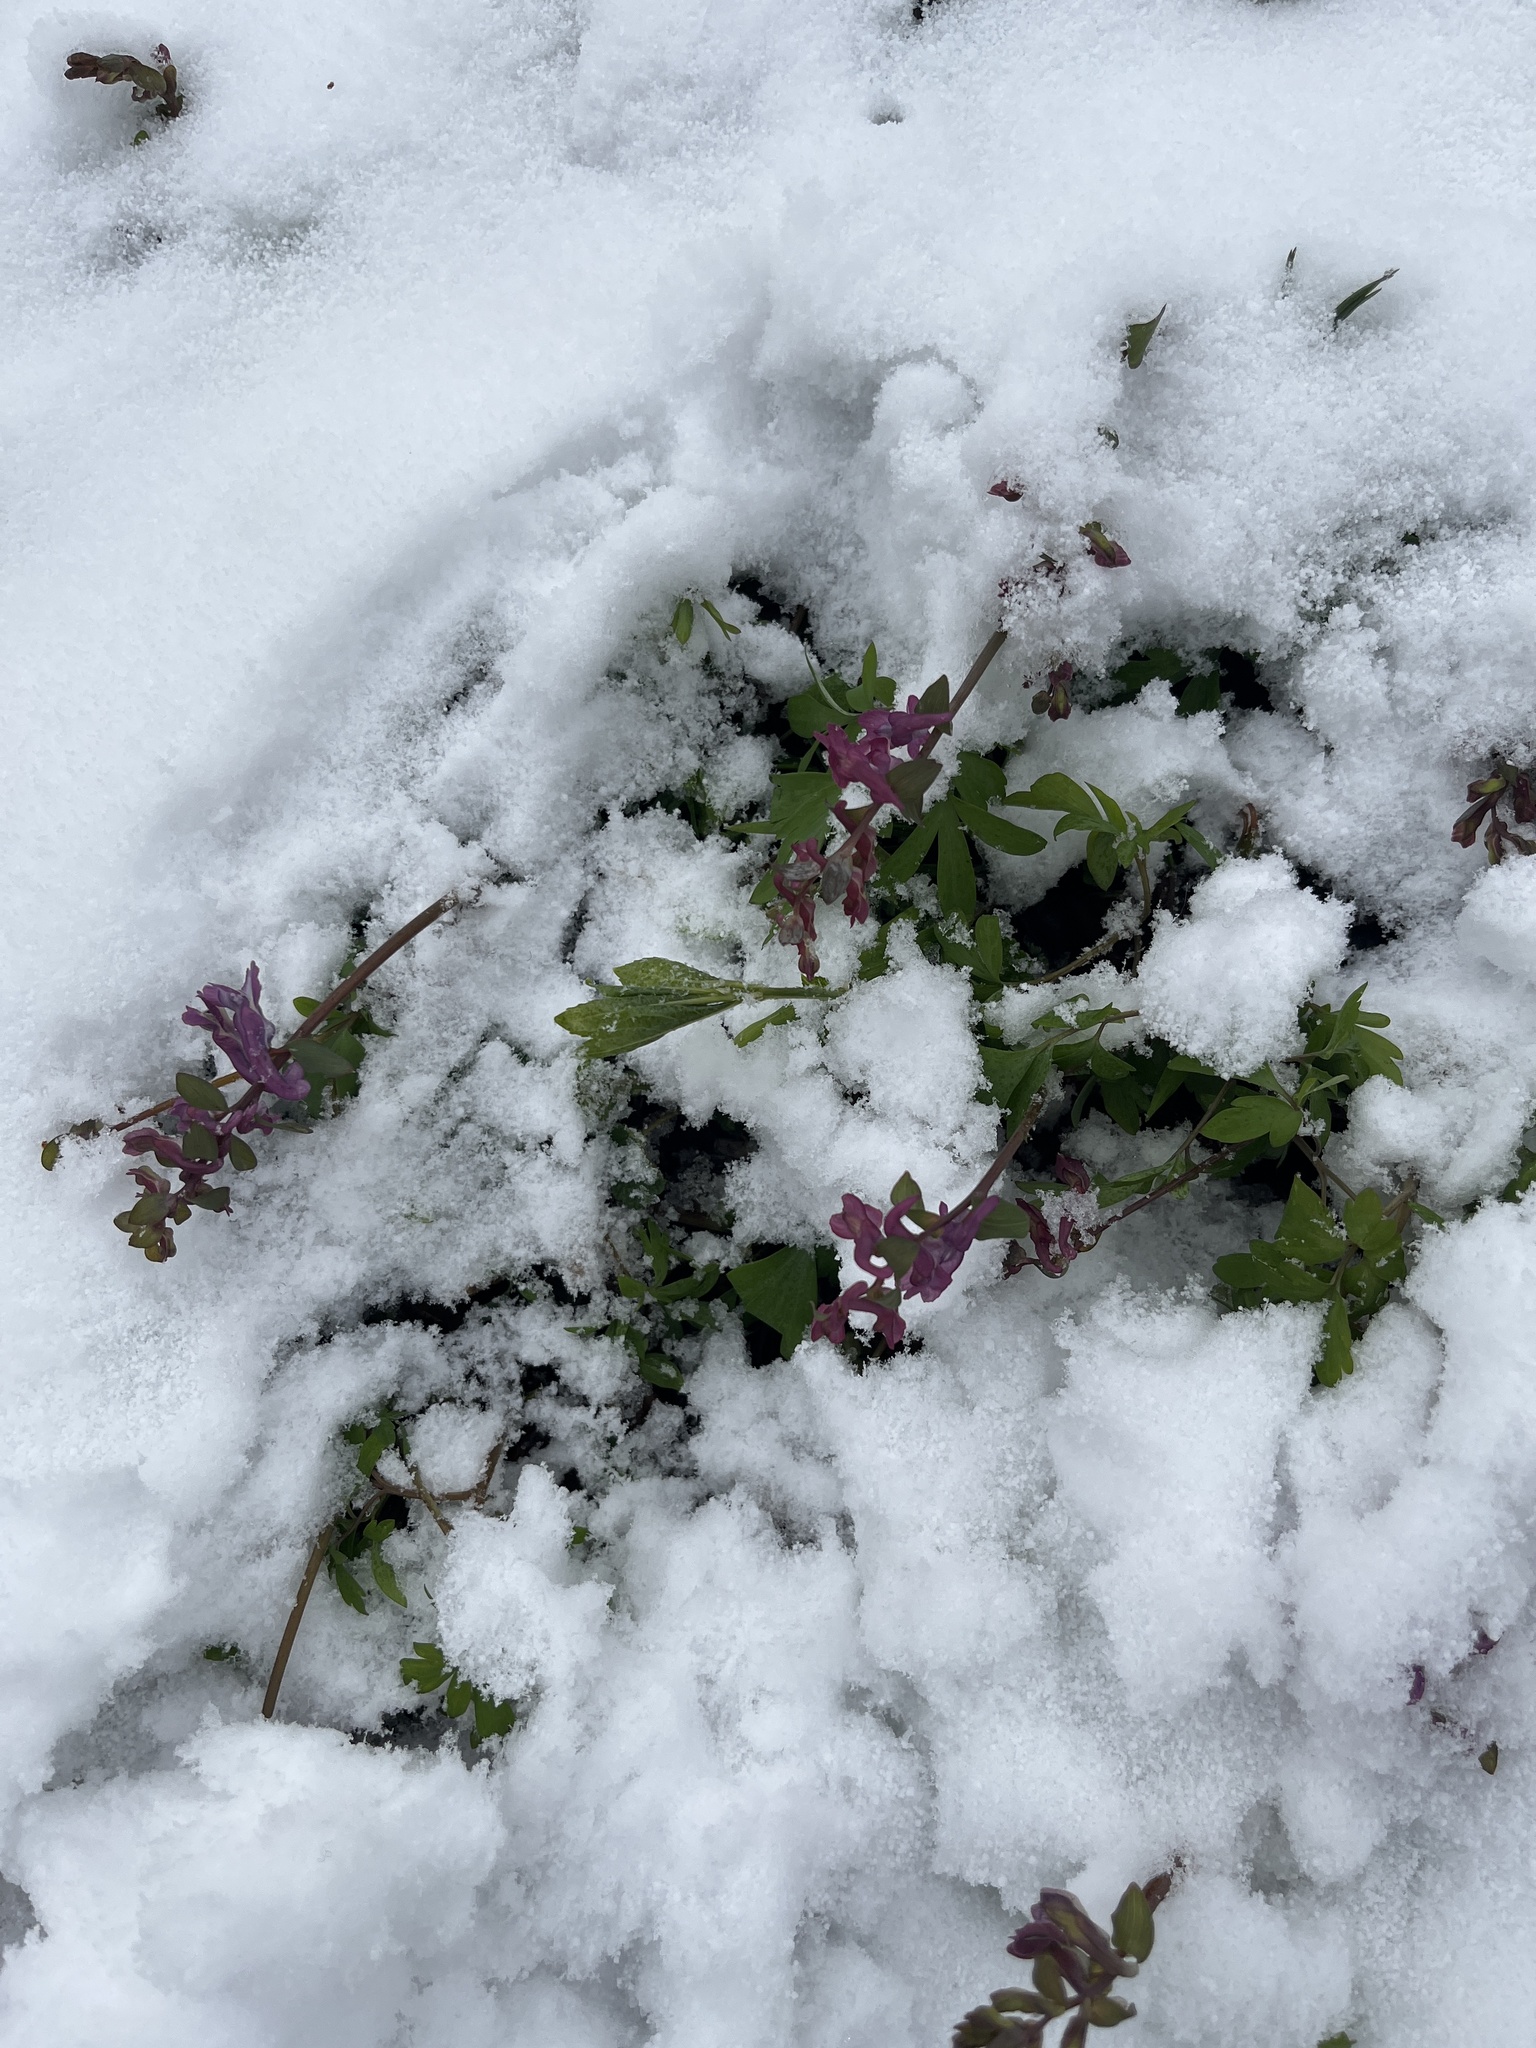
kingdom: Plantae
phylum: Tracheophyta
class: Magnoliopsida
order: Ranunculales
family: Papaveraceae
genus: Corydalis
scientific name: Corydalis cava
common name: Hollowroot
